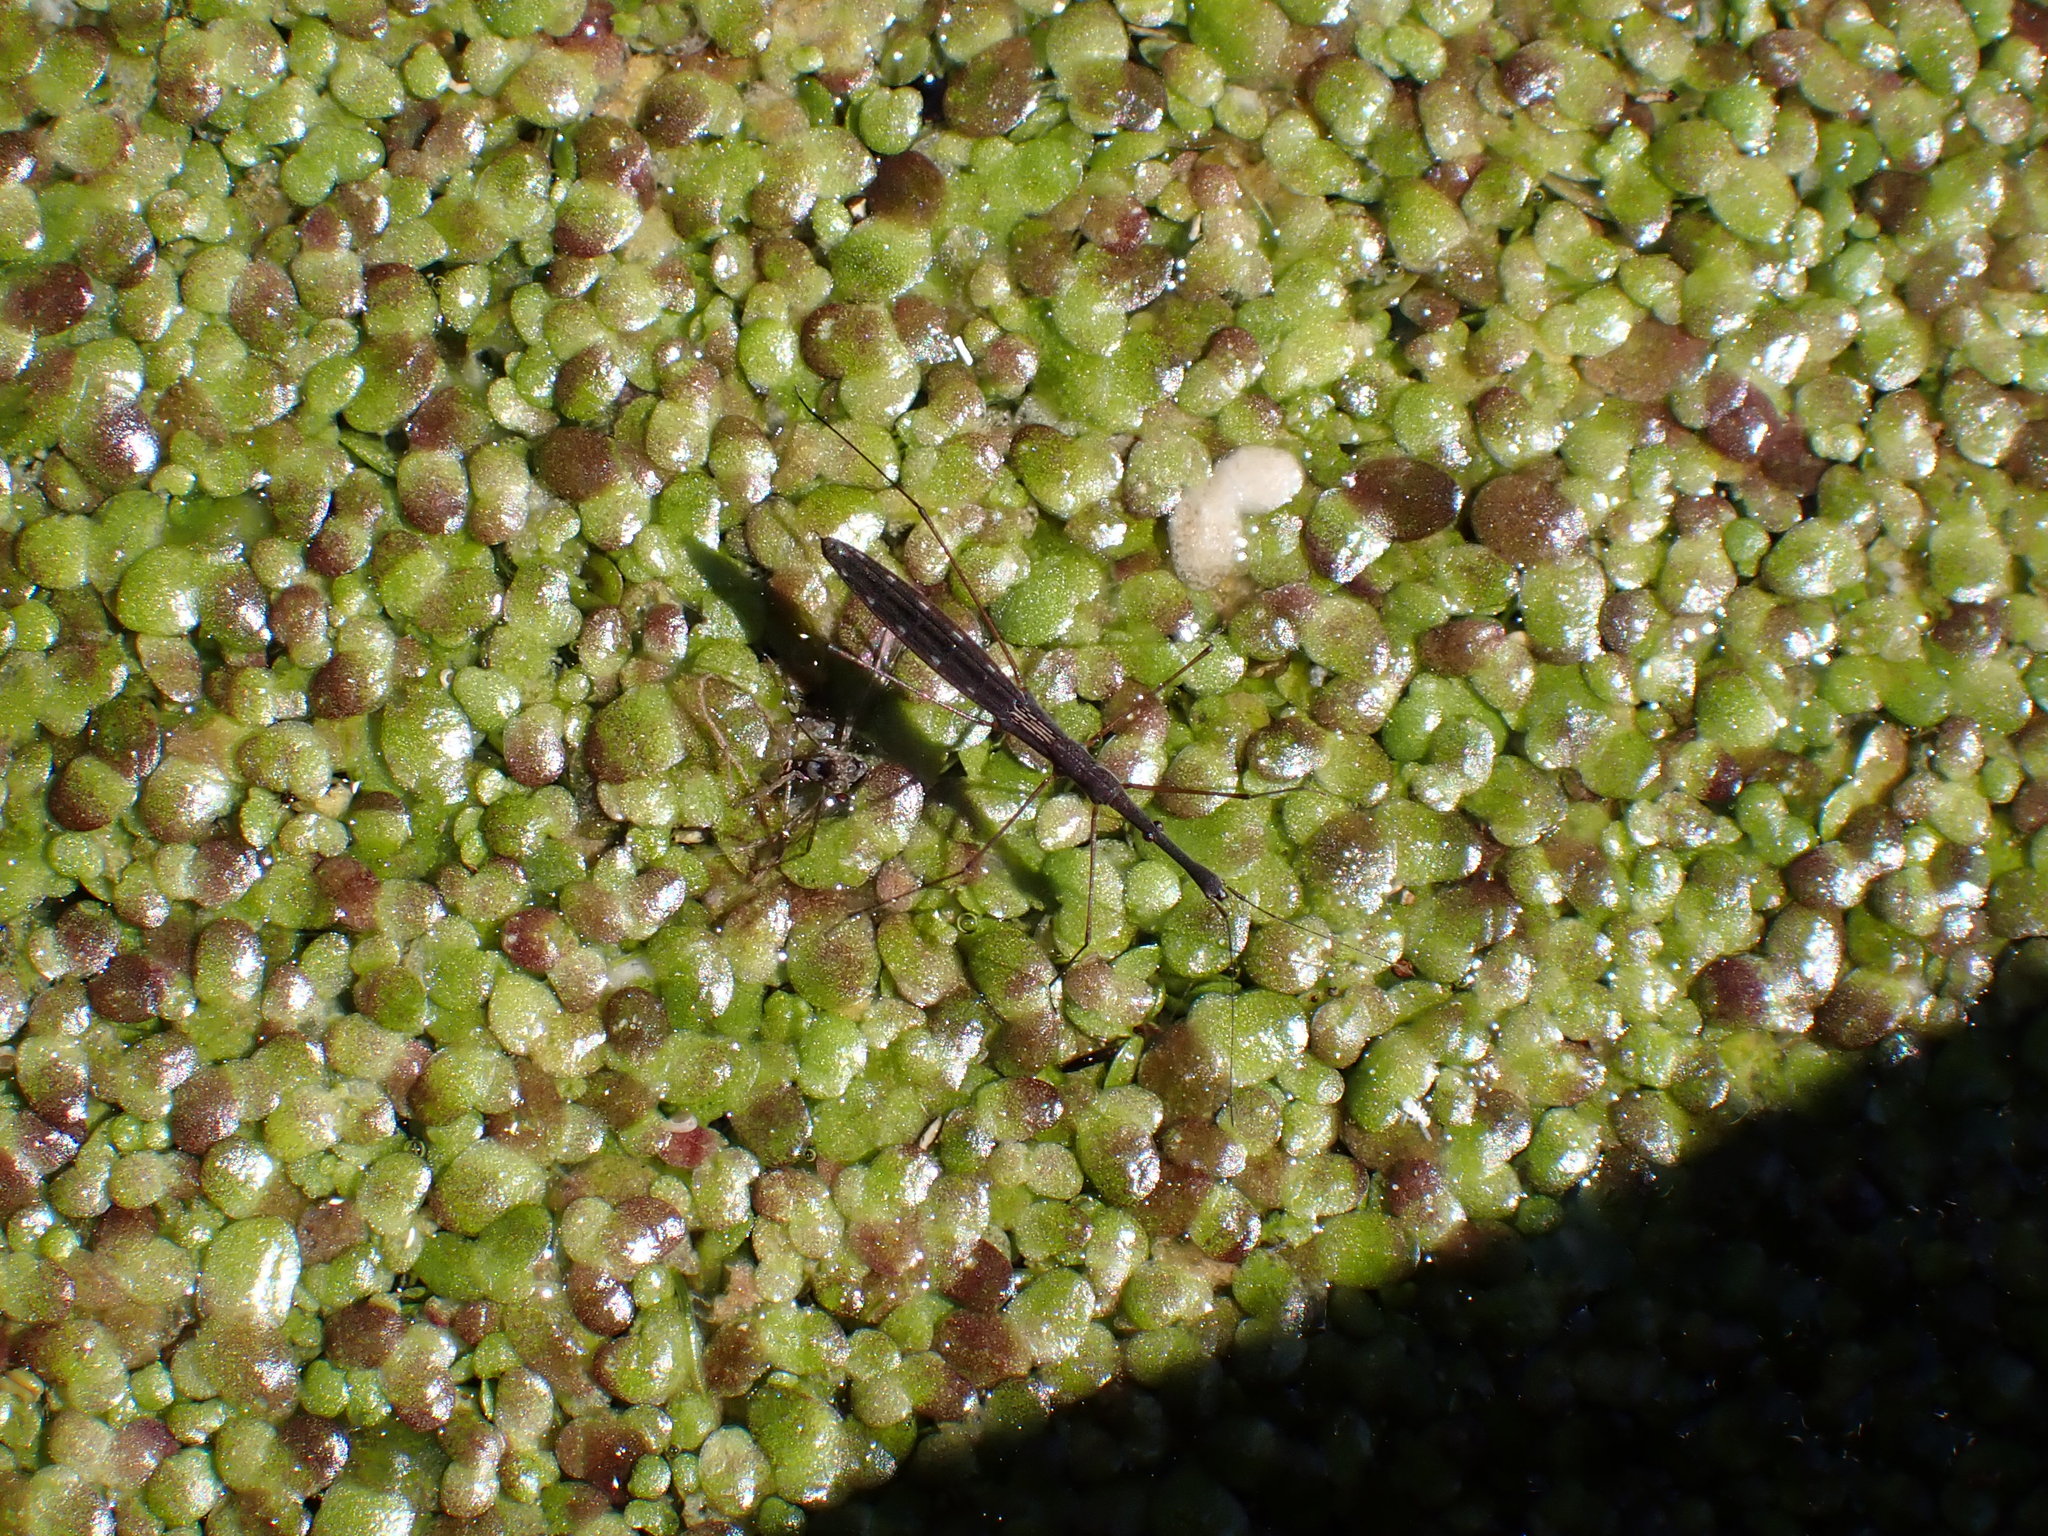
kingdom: Animalia
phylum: Arthropoda
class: Insecta
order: Hemiptera
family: Hydrometridae
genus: Hydrometra
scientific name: Hydrometra stagnorum
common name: Water measurer
